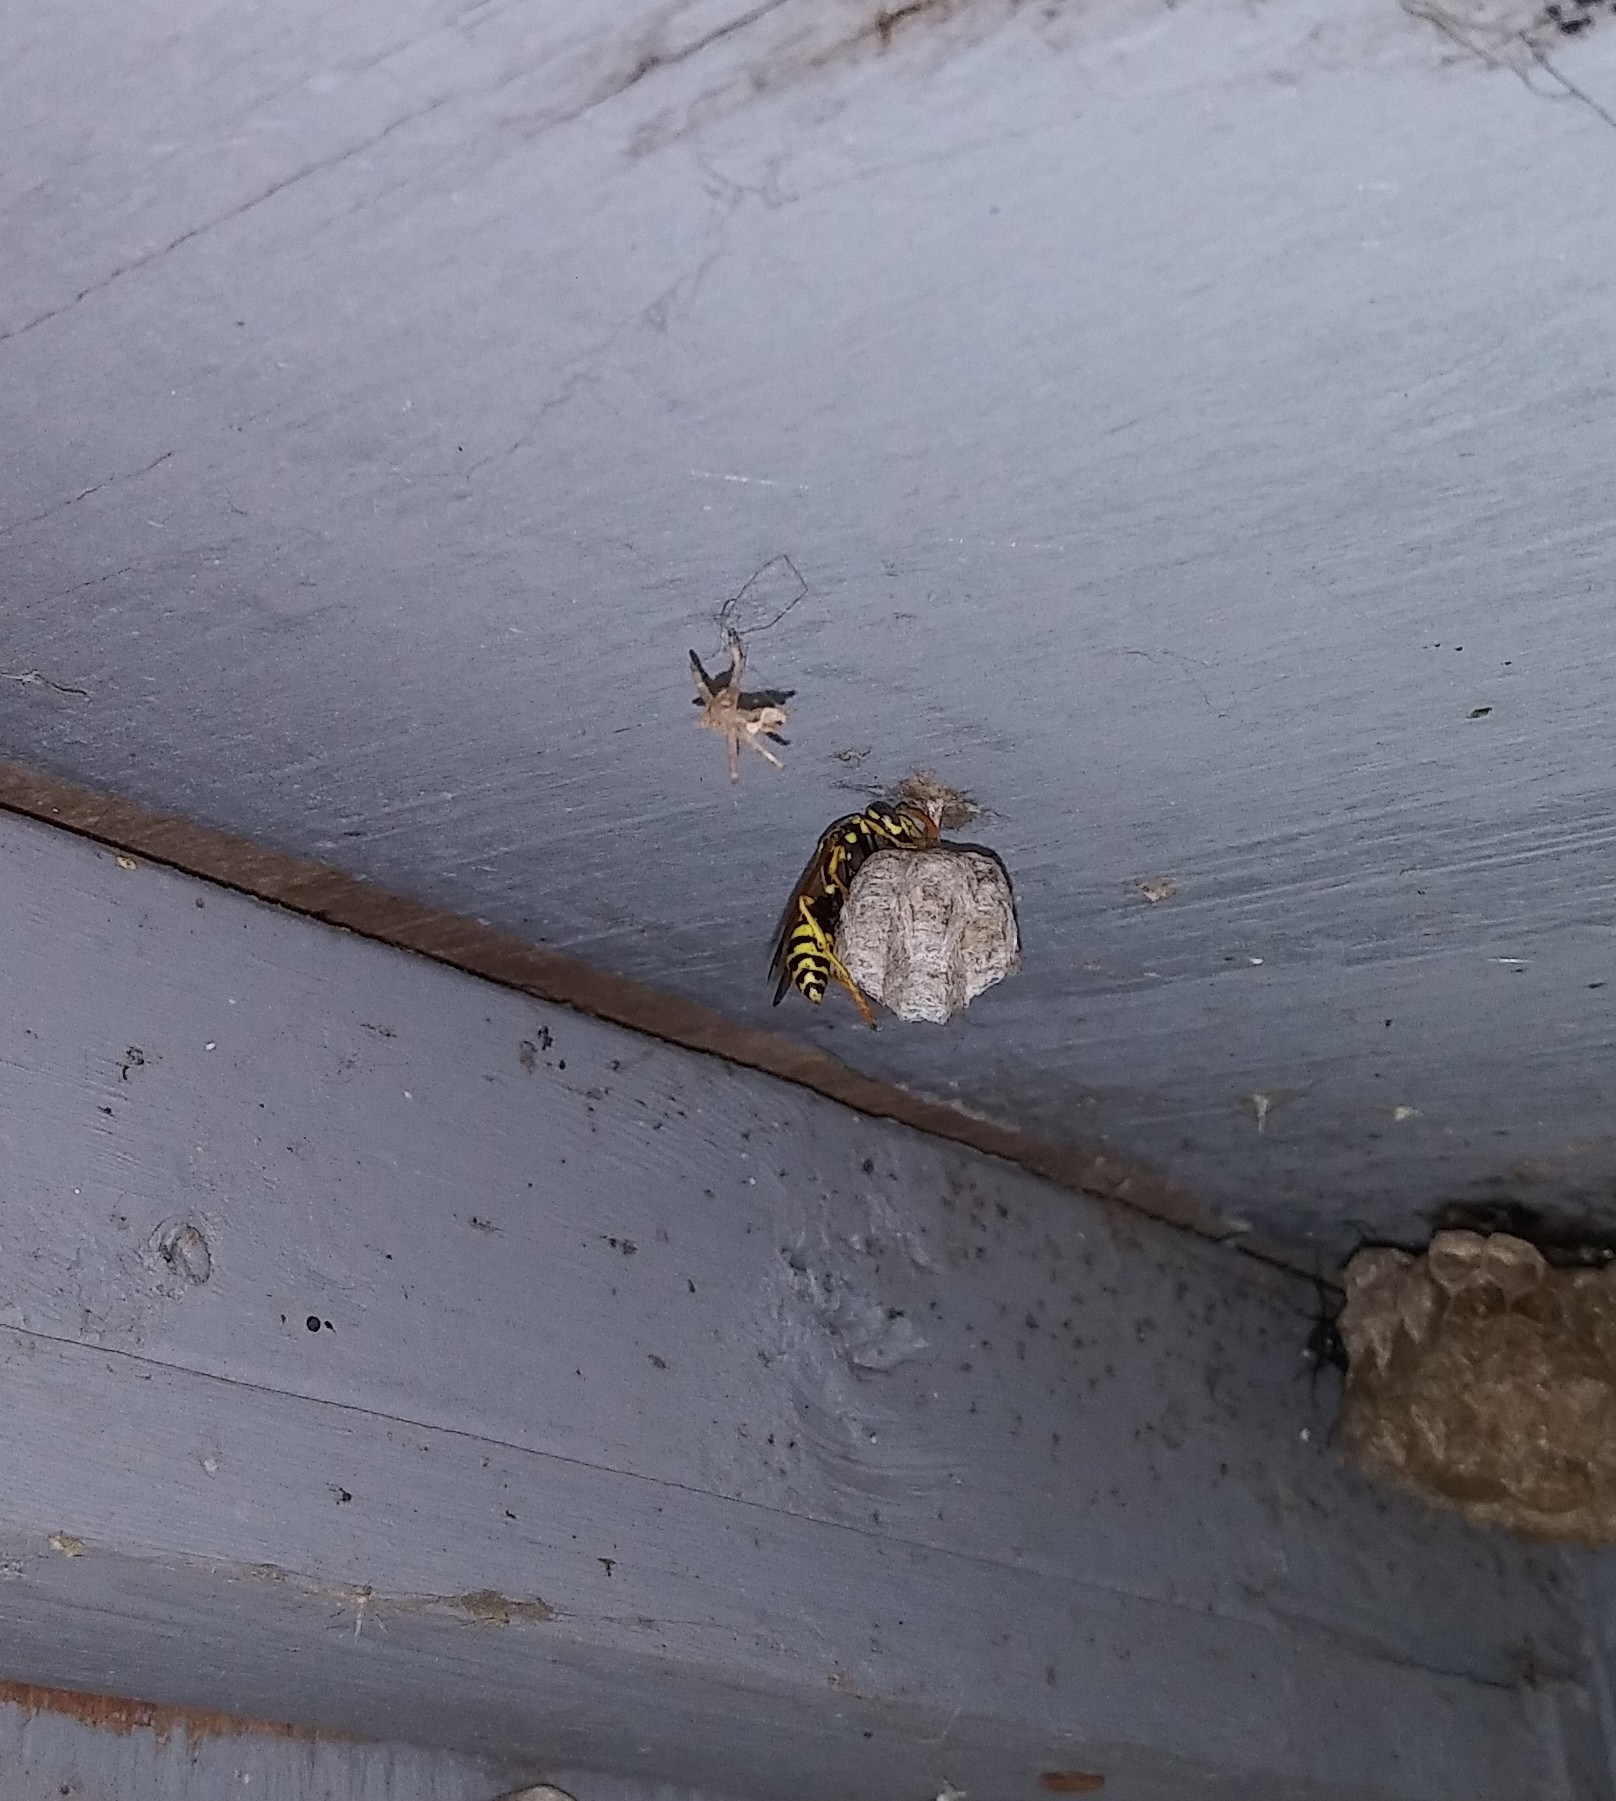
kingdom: Animalia
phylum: Arthropoda
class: Insecta
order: Hymenoptera
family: Eumenidae
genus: Polistes
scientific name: Polistes dominula
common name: Paper wasp
